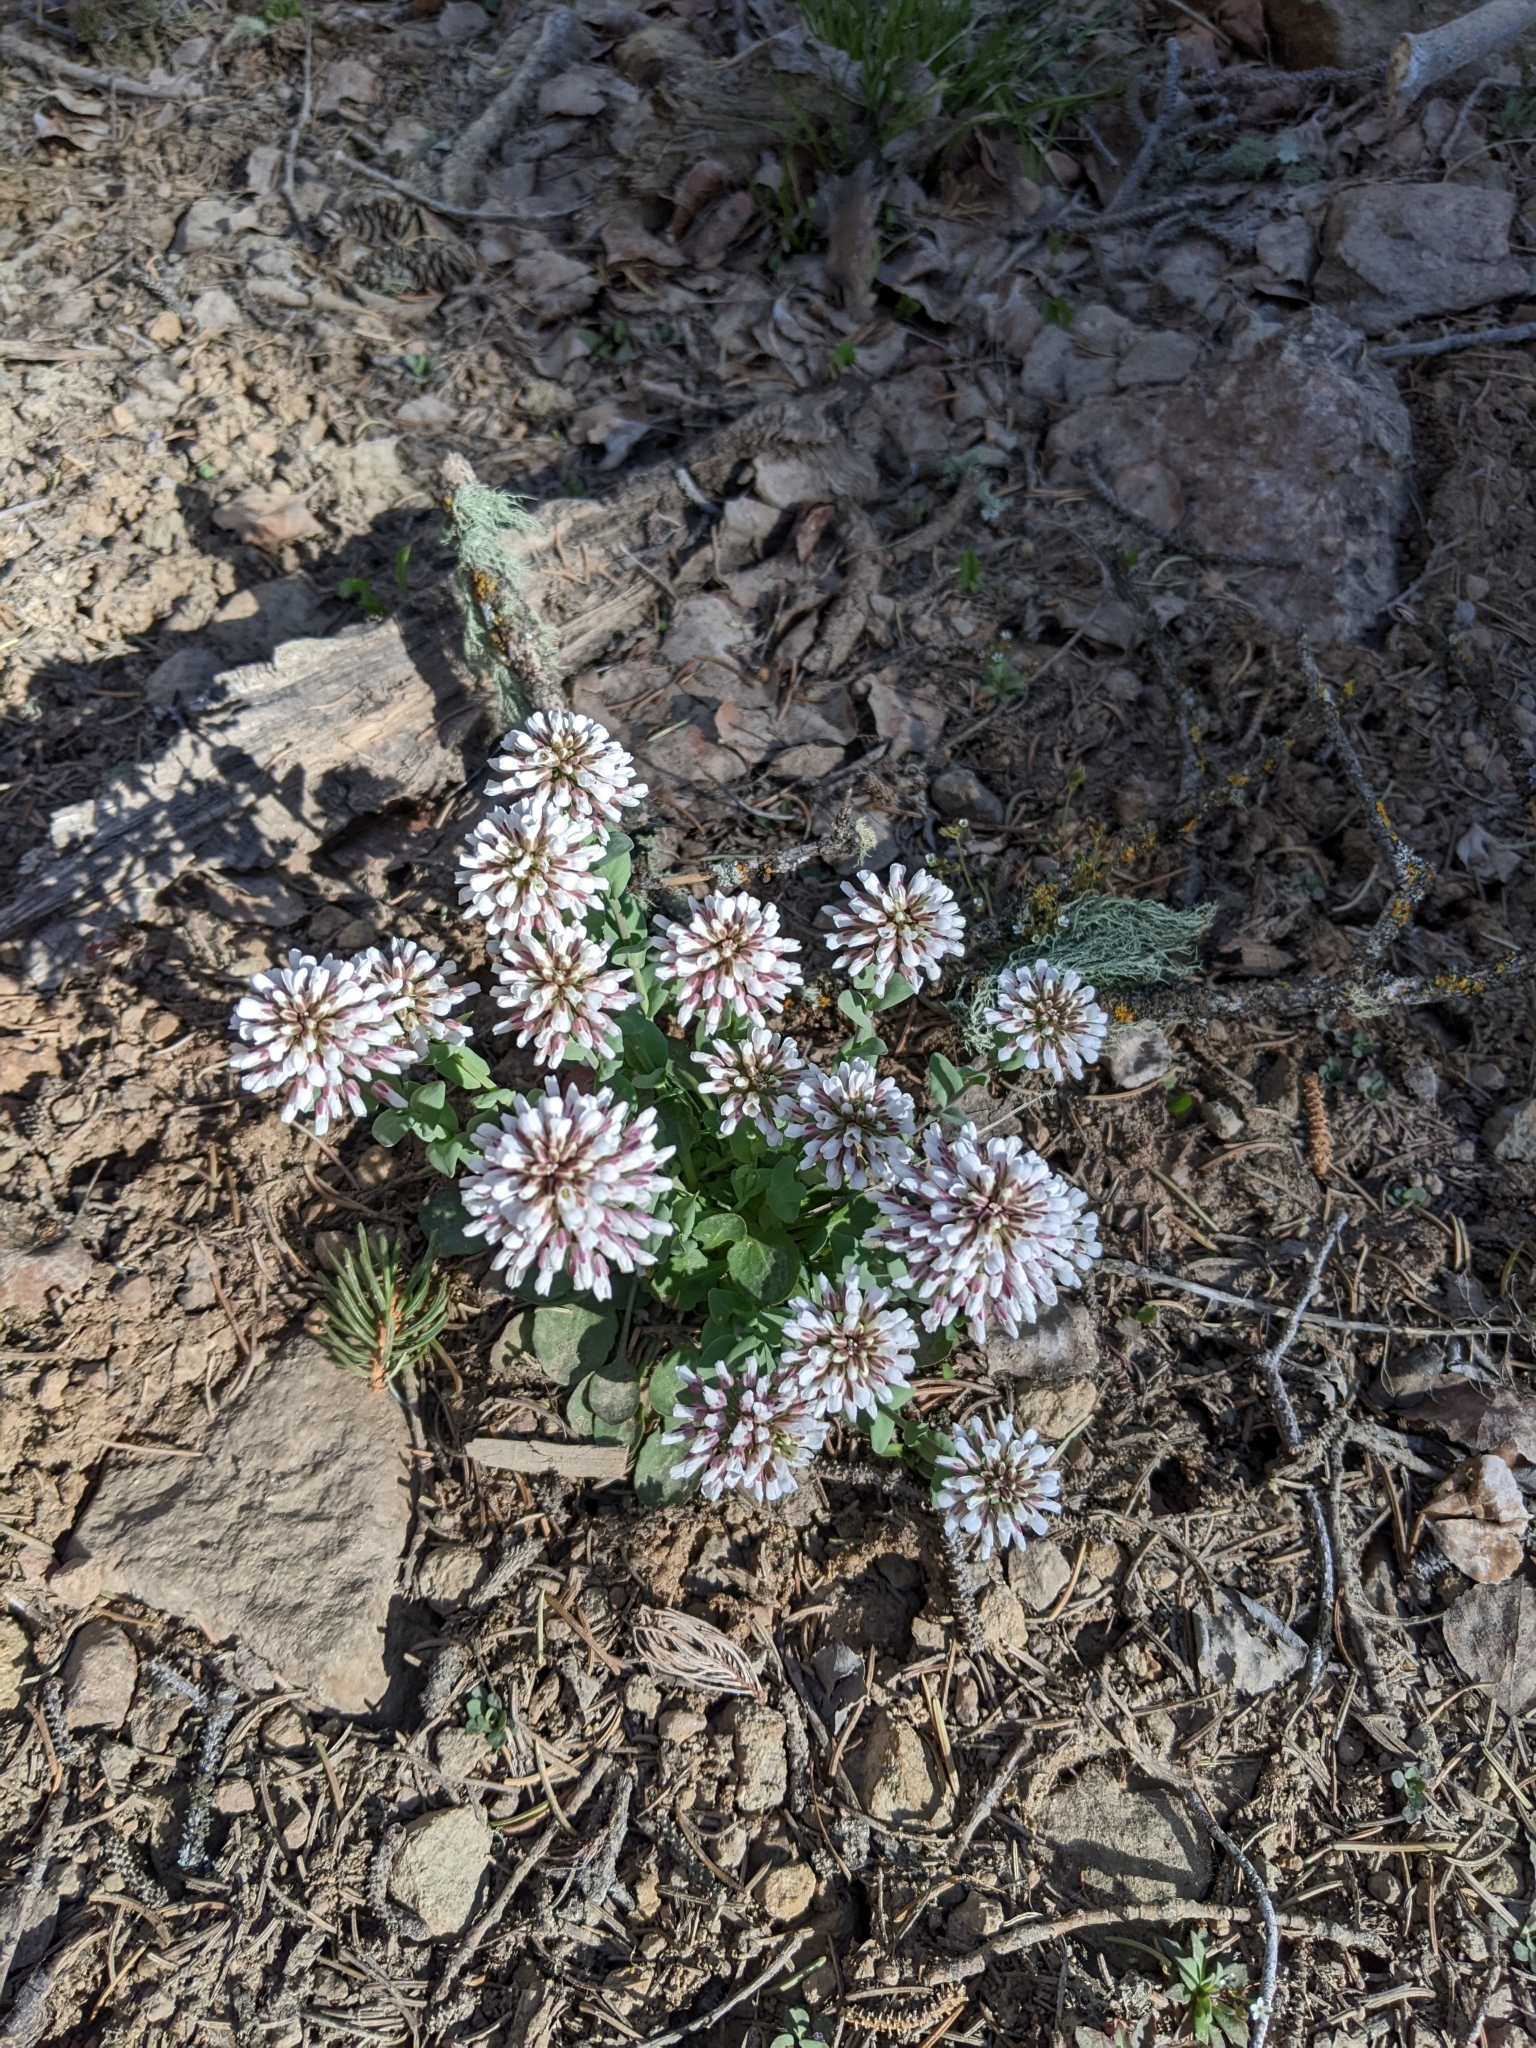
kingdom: Plantae
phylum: Tracheophyta
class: Magnoliopsida
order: Brassicales
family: Brassicaceae
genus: Noccaea
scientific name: Noccaea fendleri
